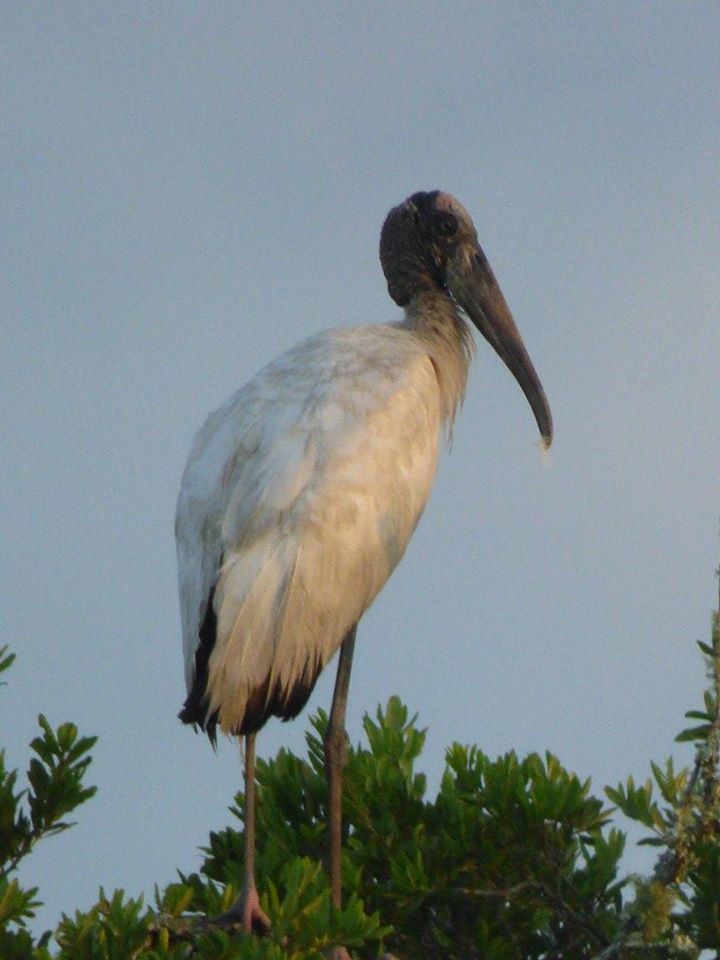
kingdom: Animalia
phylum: Chordata
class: Aves
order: Ciconiiformes
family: Ciconiidae
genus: Mycteria
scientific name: Mycteria americana
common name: Wood stork
